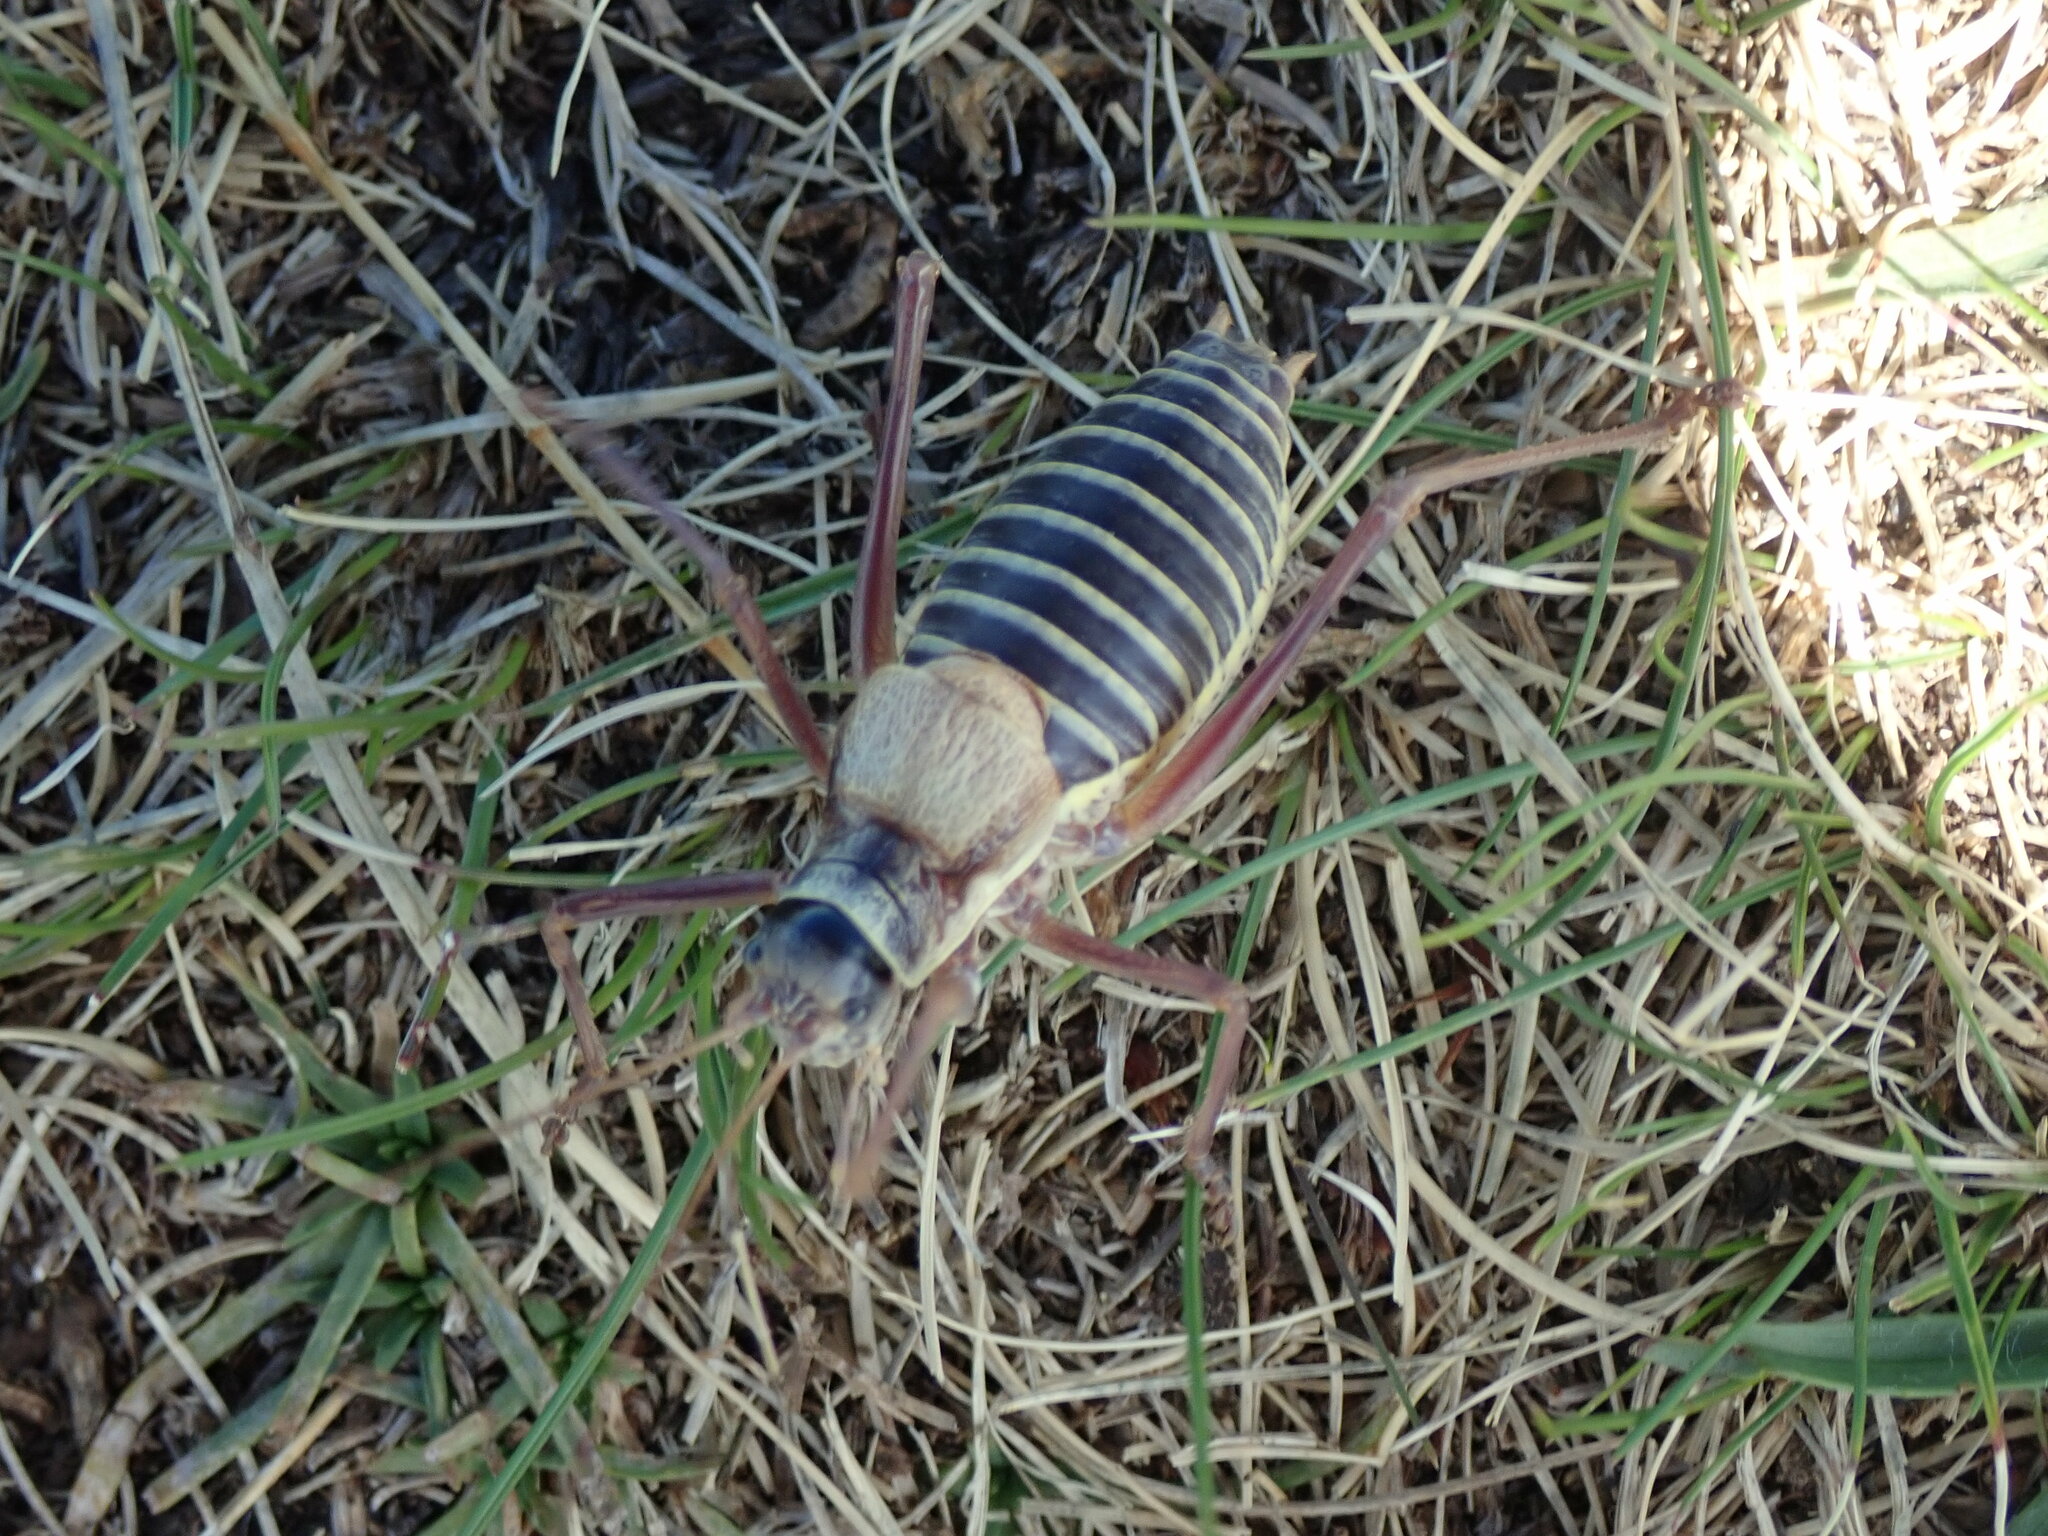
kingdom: Animalia
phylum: Arthropoda
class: Insecta
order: Orthoptera
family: Tettigoniidae
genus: Ephippiger
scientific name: Ephippiger diurnus
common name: Western saddle bush-cricket
